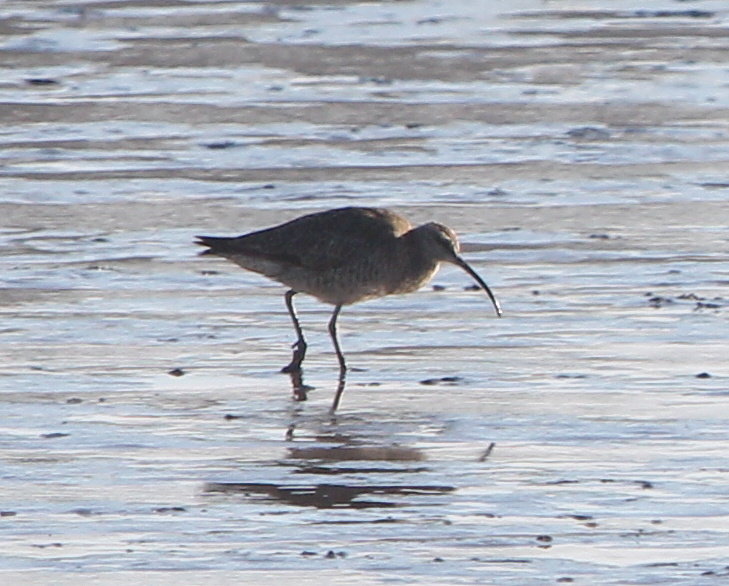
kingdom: Animalia
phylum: Chordata
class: Aves
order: Charadriiformes
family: Scolopacidae
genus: Numenius
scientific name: Numenius phaeopus
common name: Whimbrel
